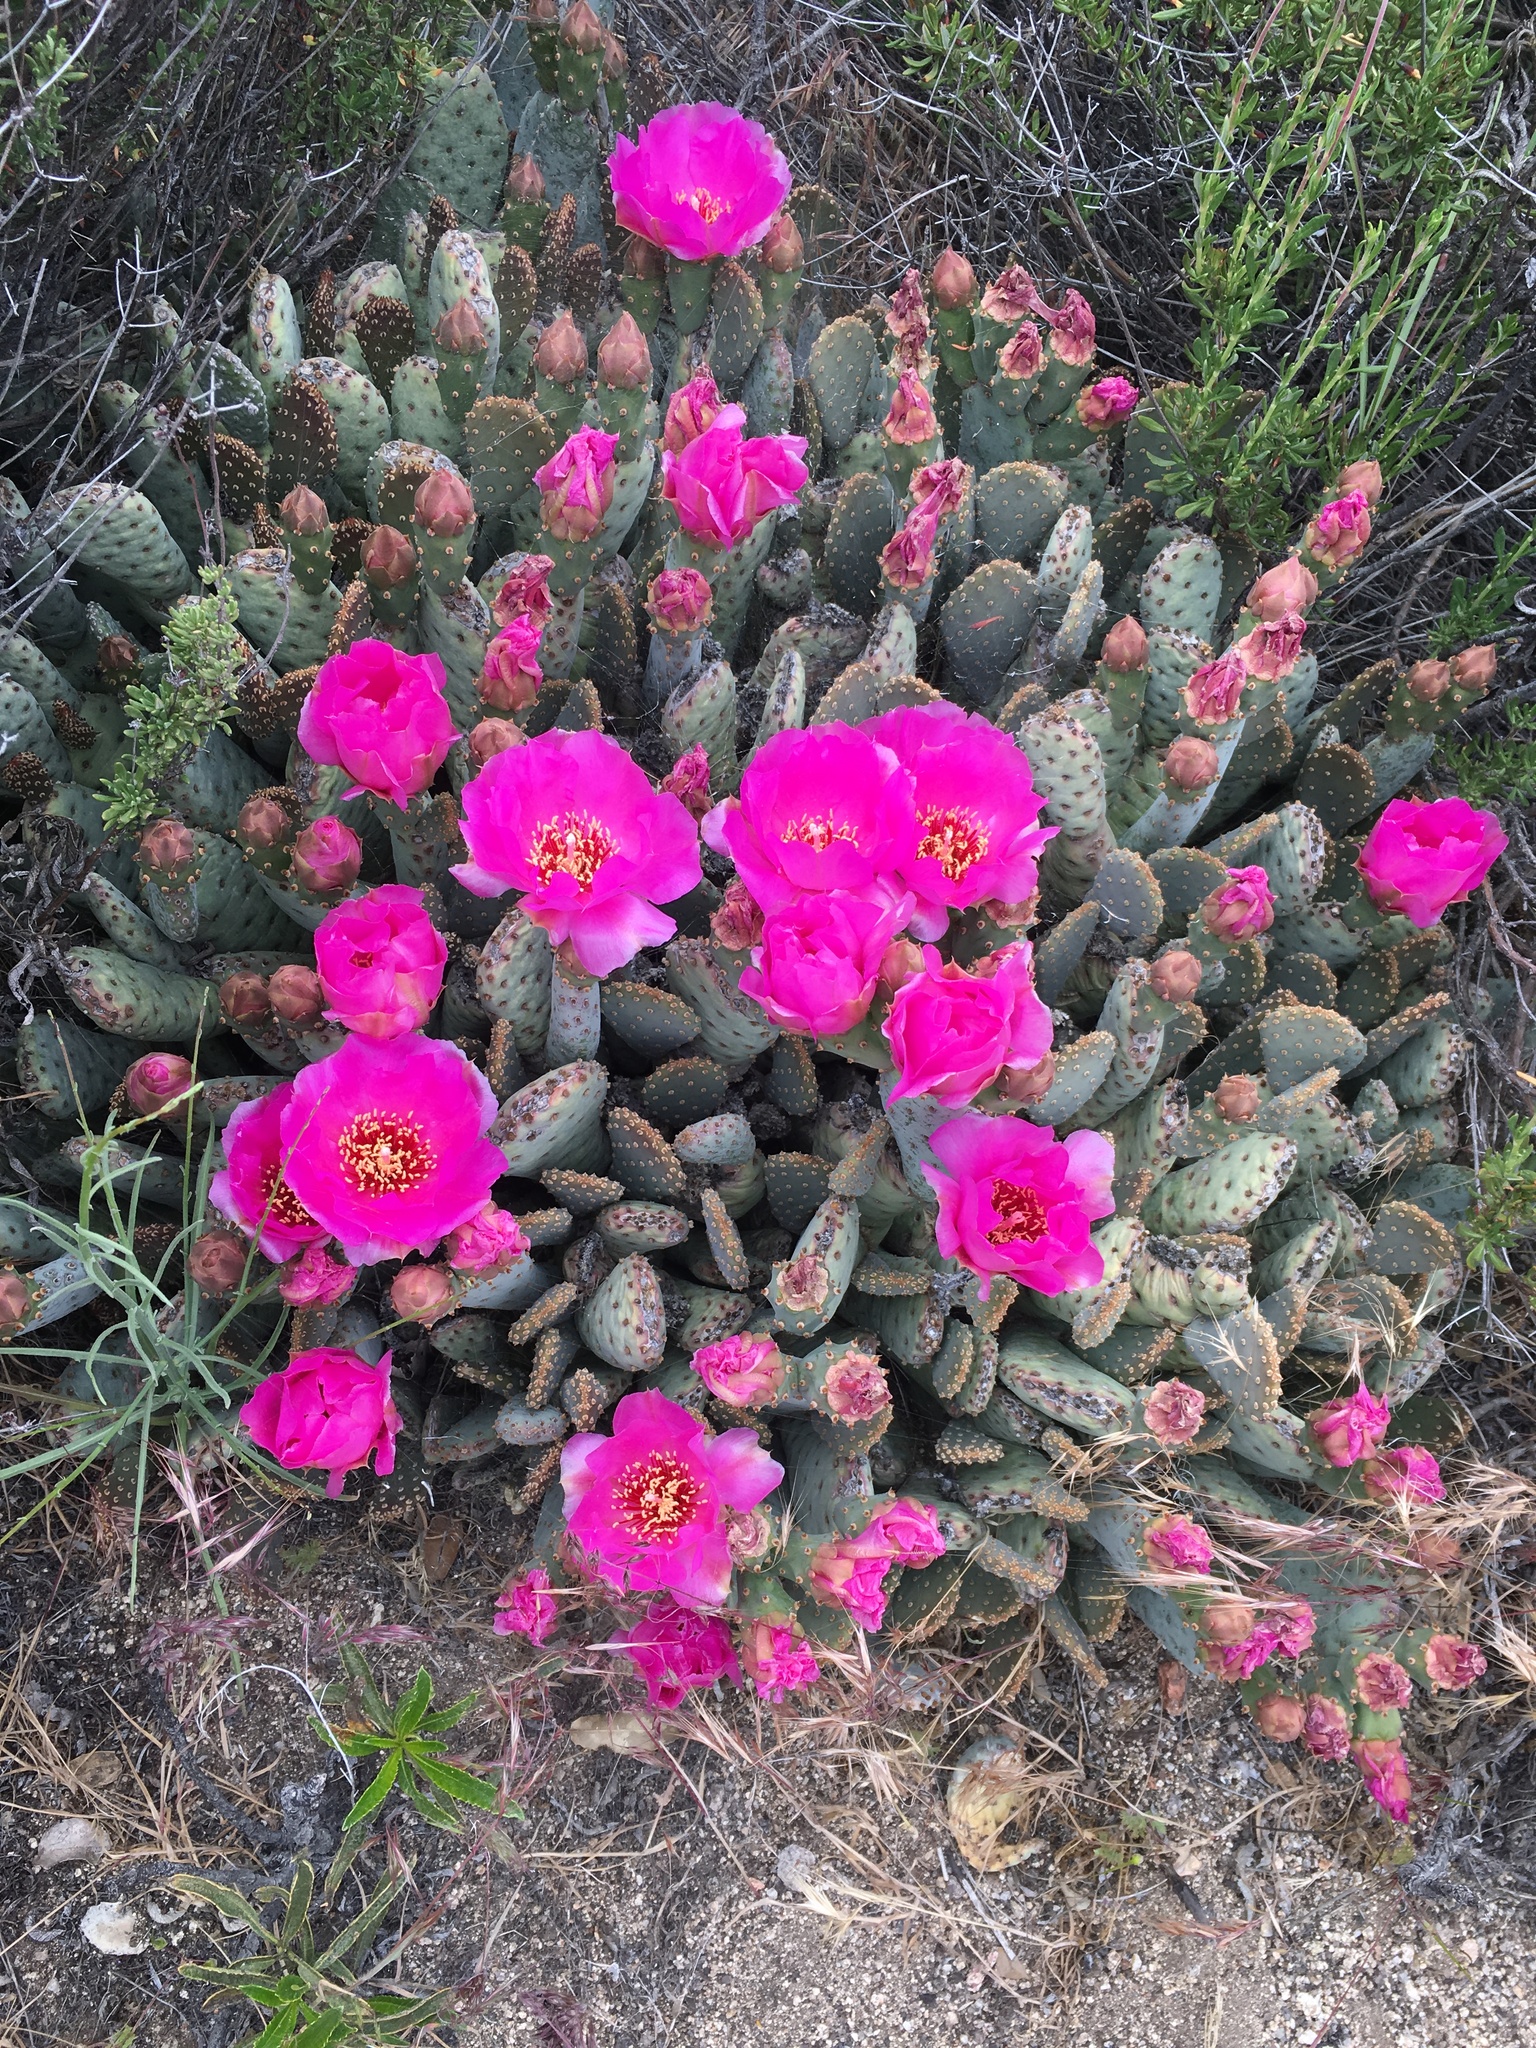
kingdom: Plantae
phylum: Tracheophyta
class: Magnoliopsida
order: Caryophyllales
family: Cactaceae
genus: Opuntia
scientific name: Opuntia basilaris
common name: Beavertail prickly-pear
